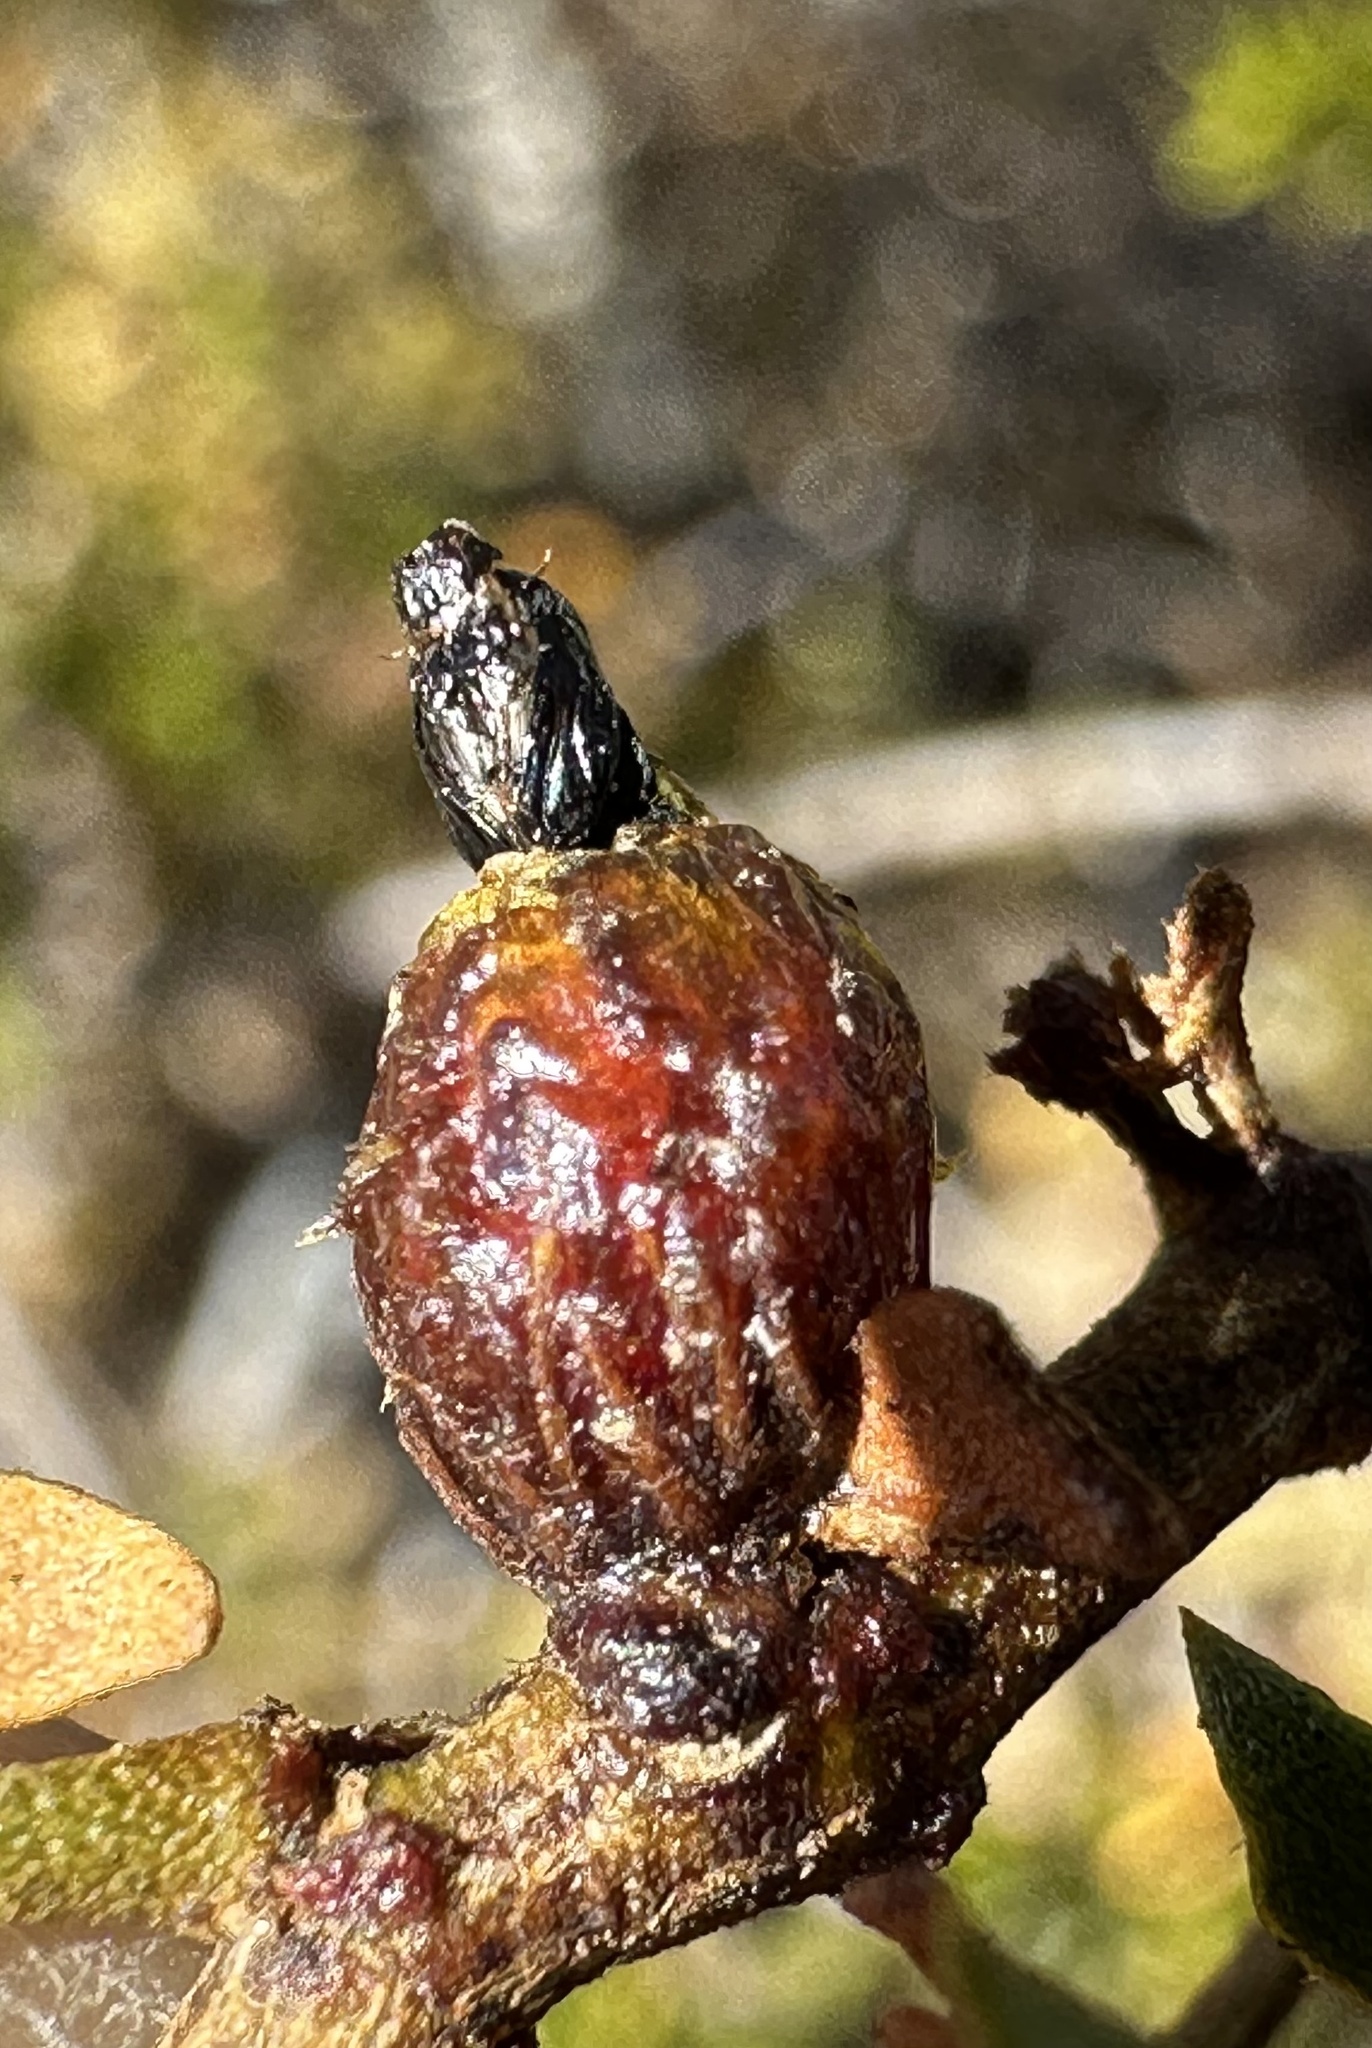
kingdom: Animalia
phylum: Arthropoda
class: Insecta
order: Diptera
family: Cecidomyiidae
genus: Asphondylia
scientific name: Asphondylia resinosa
